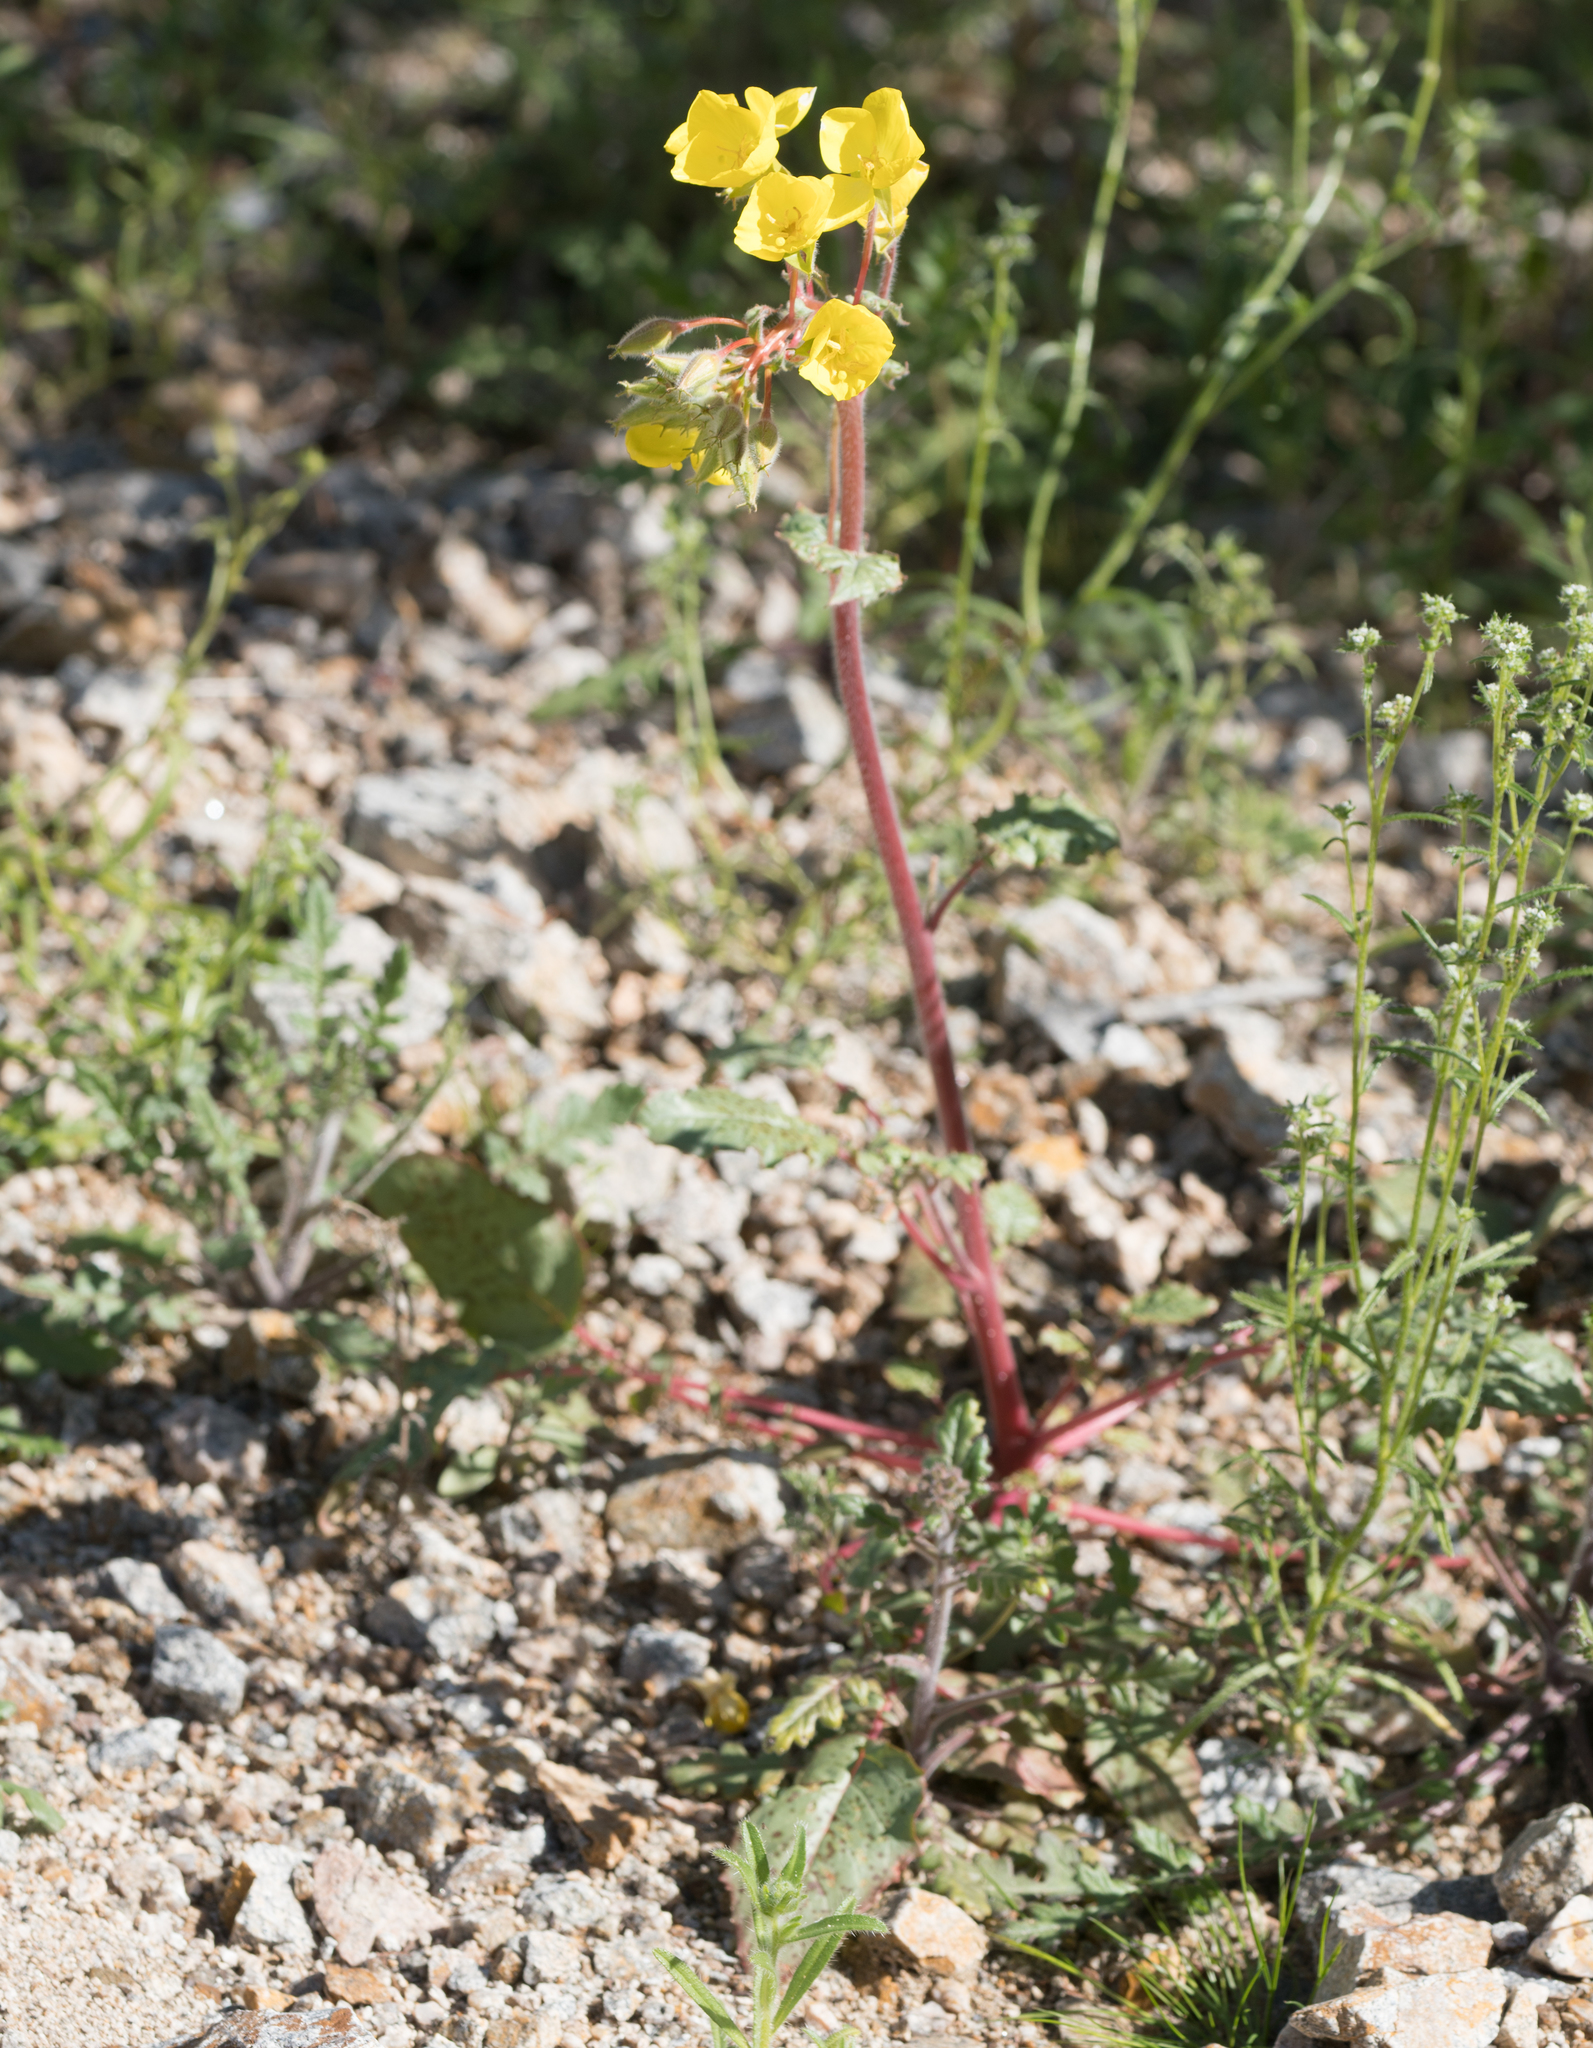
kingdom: Plantae
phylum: Tracheophyta
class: Magnoliopsida
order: Myrtales
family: Onagraceae
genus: Chylismia
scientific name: Chylismia brevipes
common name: Yellow cups
